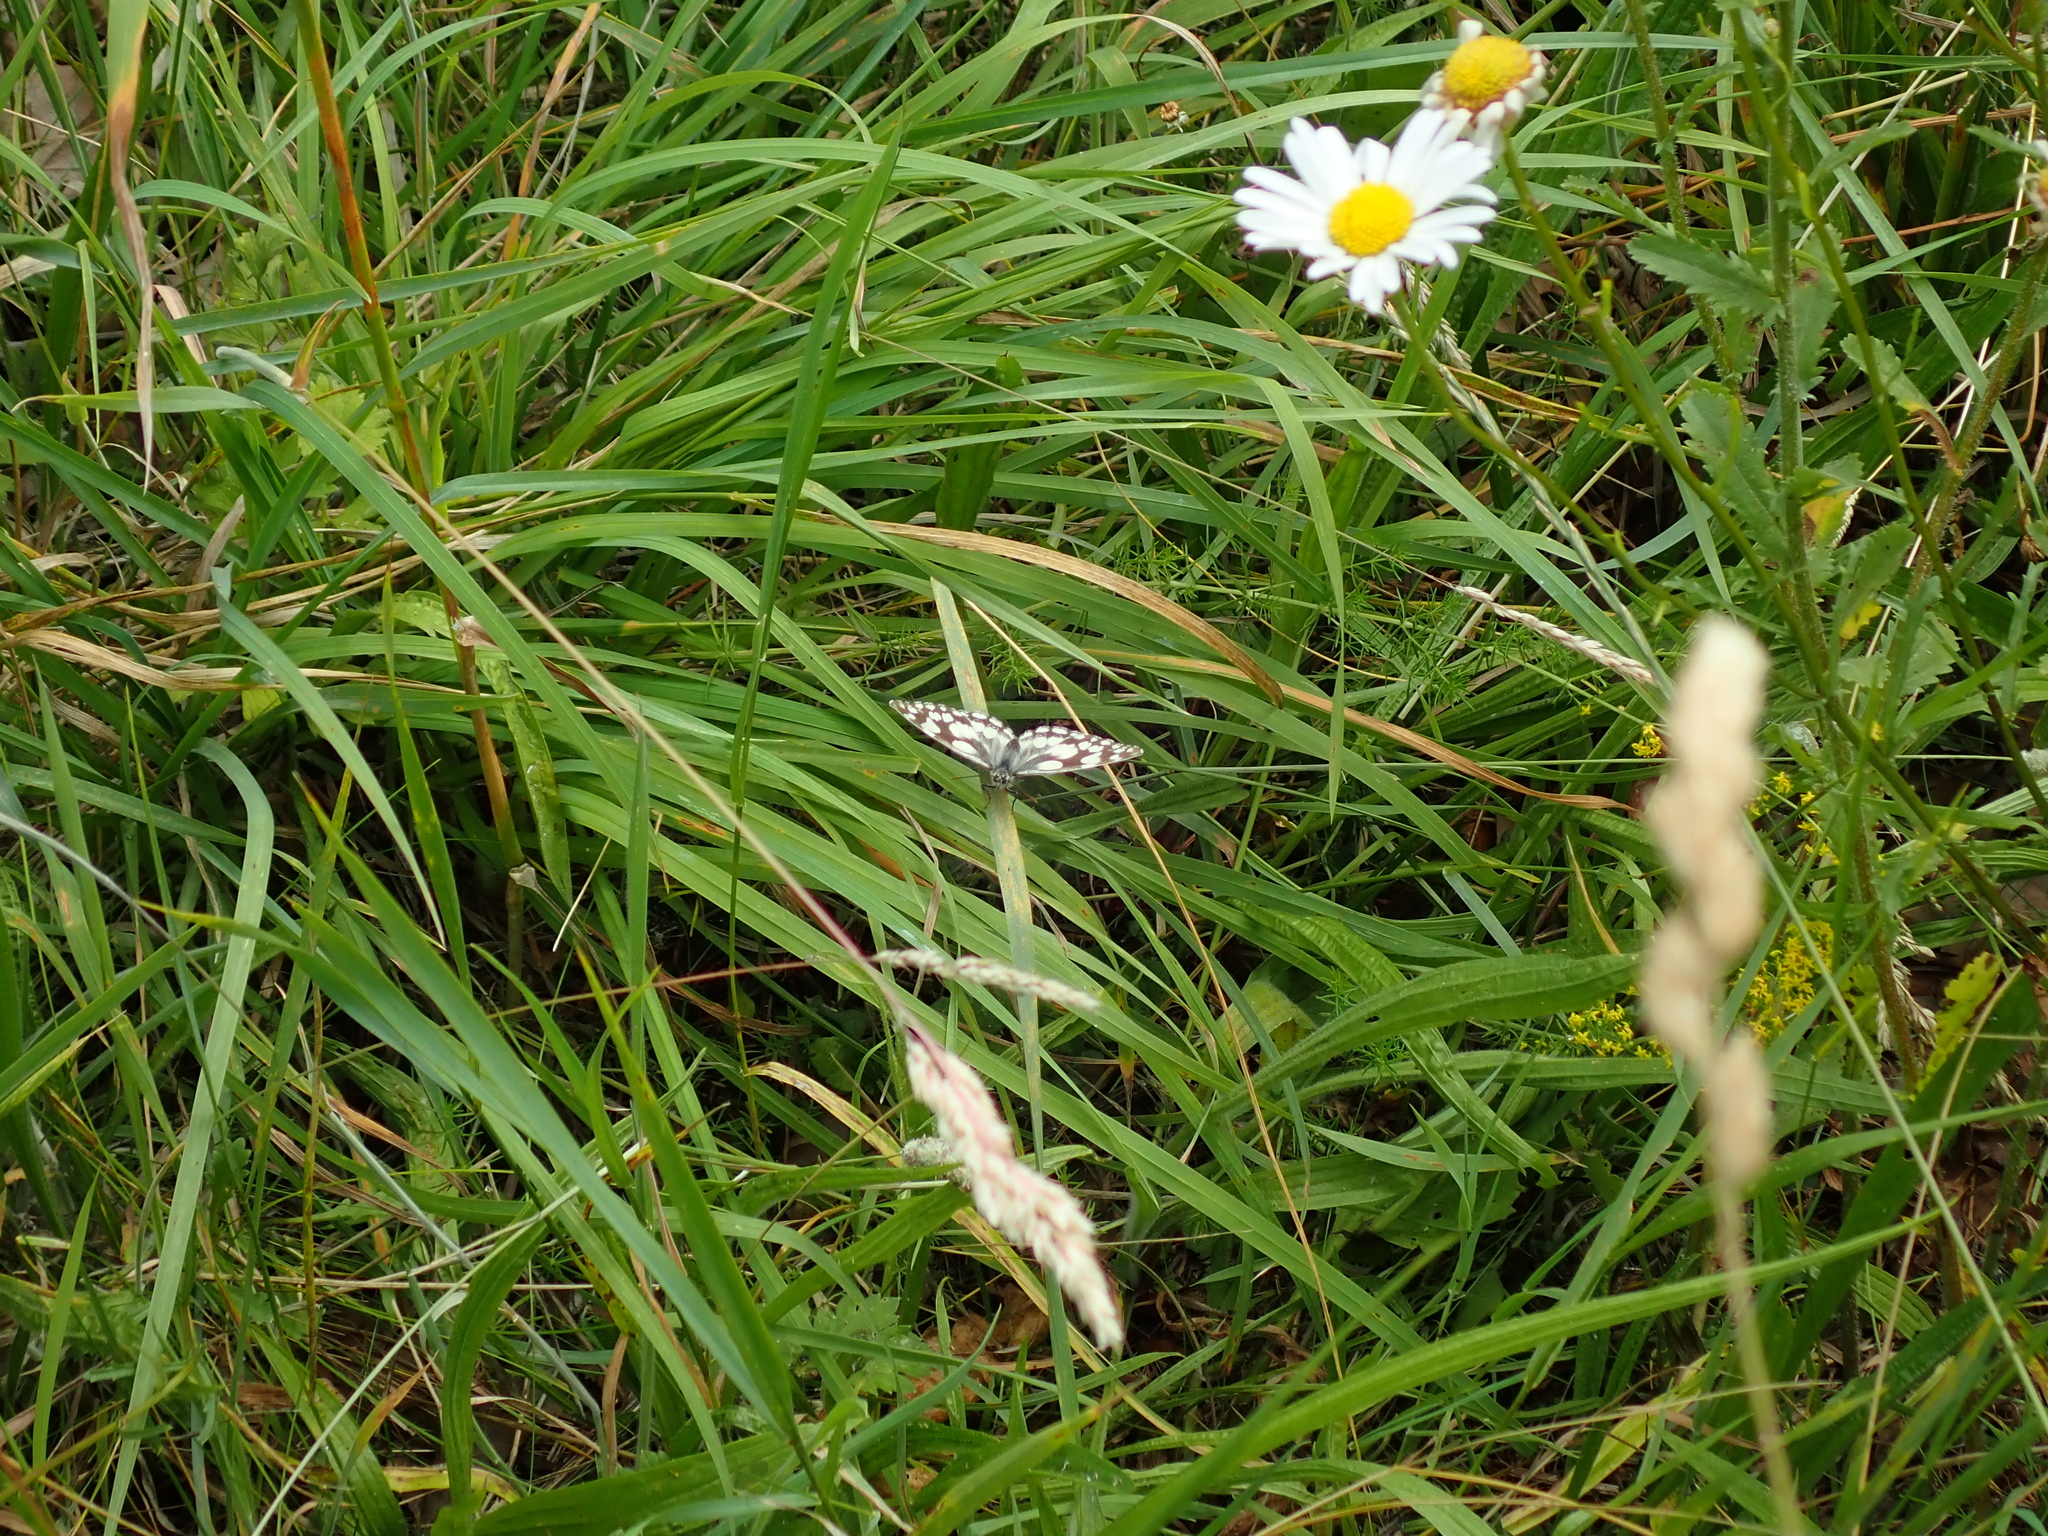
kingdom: Animalia
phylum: Arthropoda
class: Insecta
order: Lepidoptera
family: Nymphalidae
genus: Melanargia
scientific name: Melanargia galathea
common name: Marbled white
